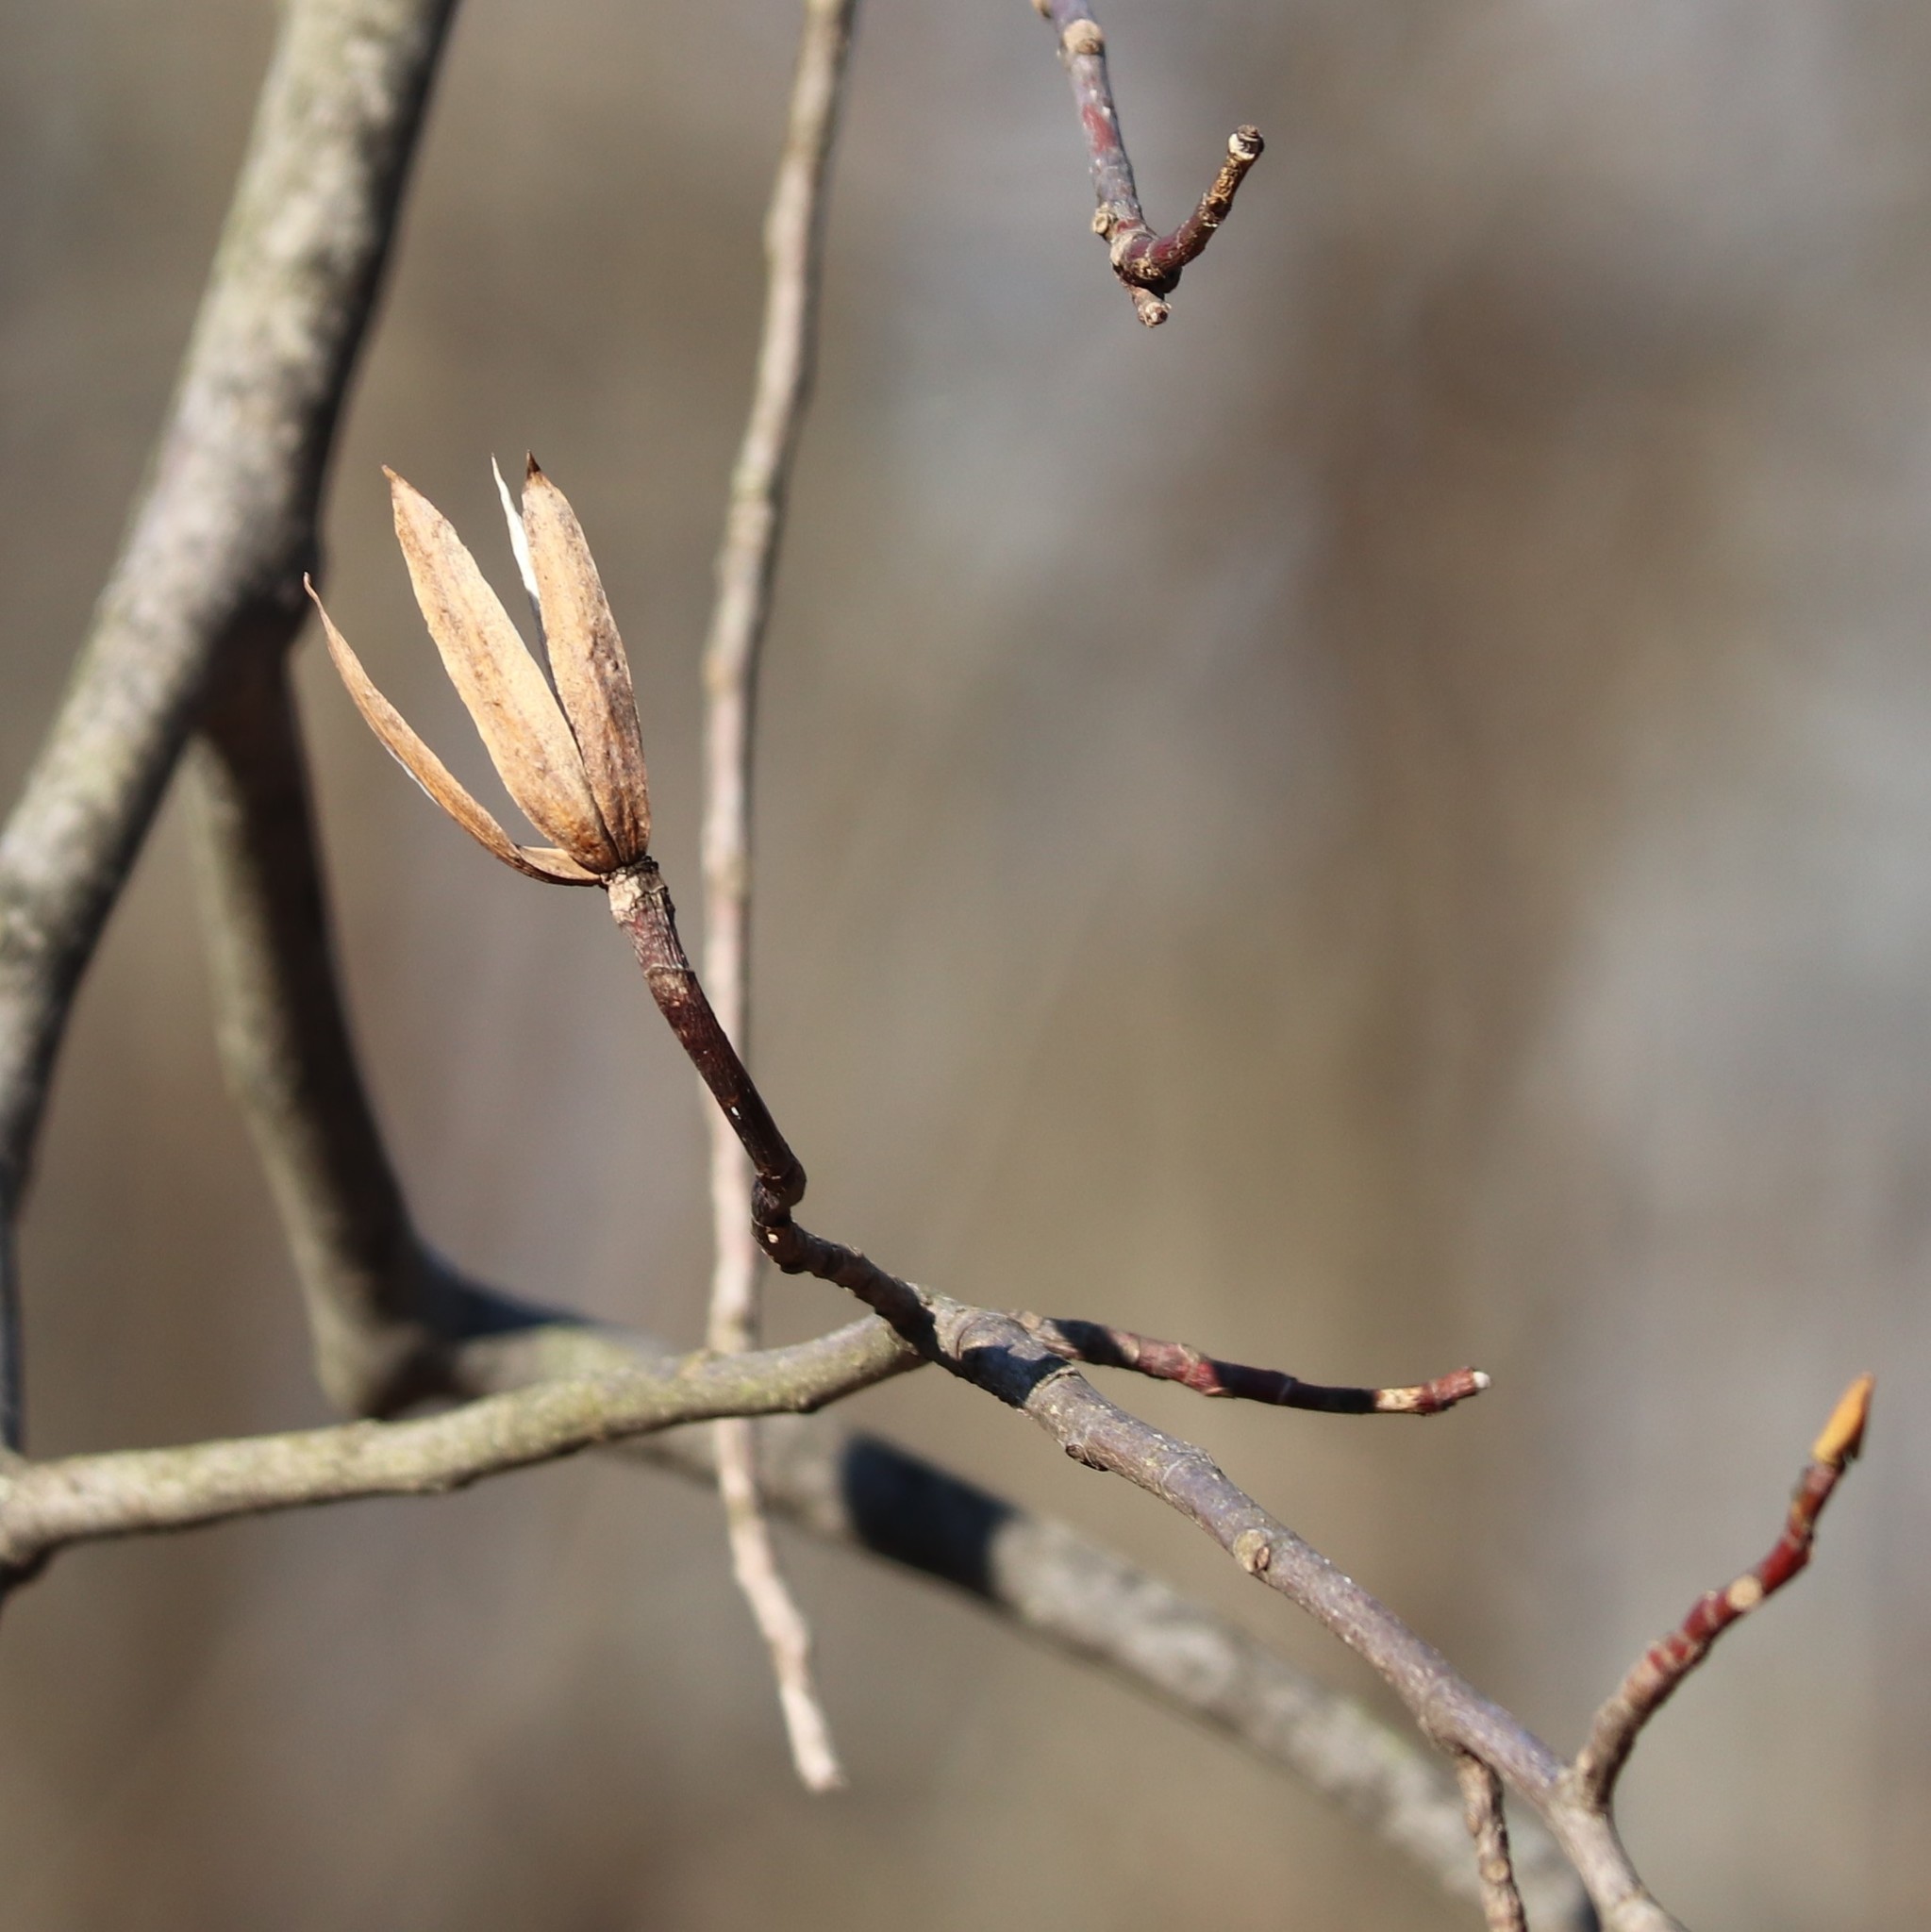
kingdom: Plantae
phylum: Tracheophyta
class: Magnoliopsida
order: Magnoliales
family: Magnoliaceae
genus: Liriodendron
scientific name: Liriodendron tulipifera
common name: Tulip tree
